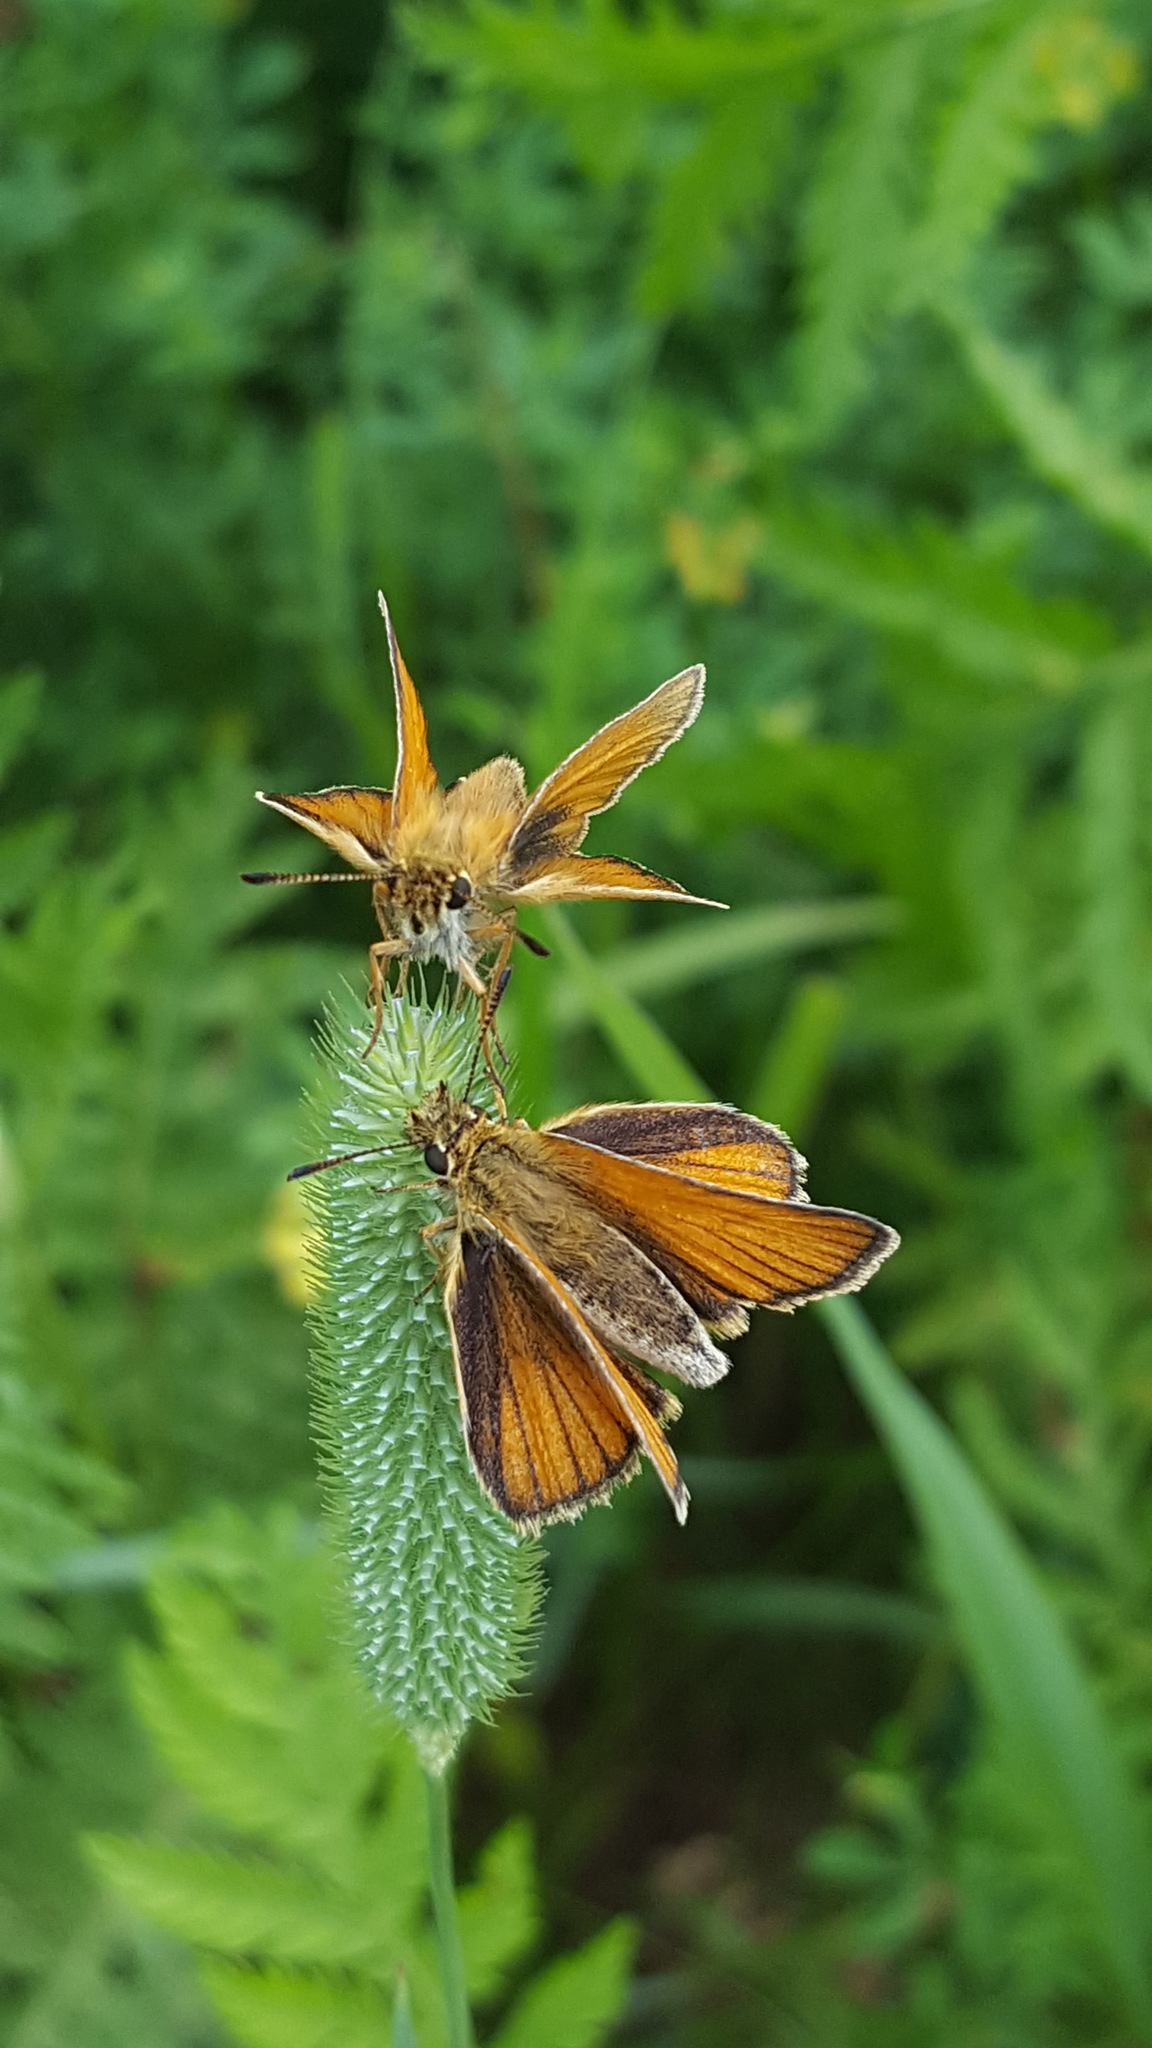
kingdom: Animalia
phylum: Arthropoda
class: Insecta
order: Lepidoptera
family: Hesperiidae
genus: Thymelicus
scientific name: Thymelicus lineola
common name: Essex skipper
